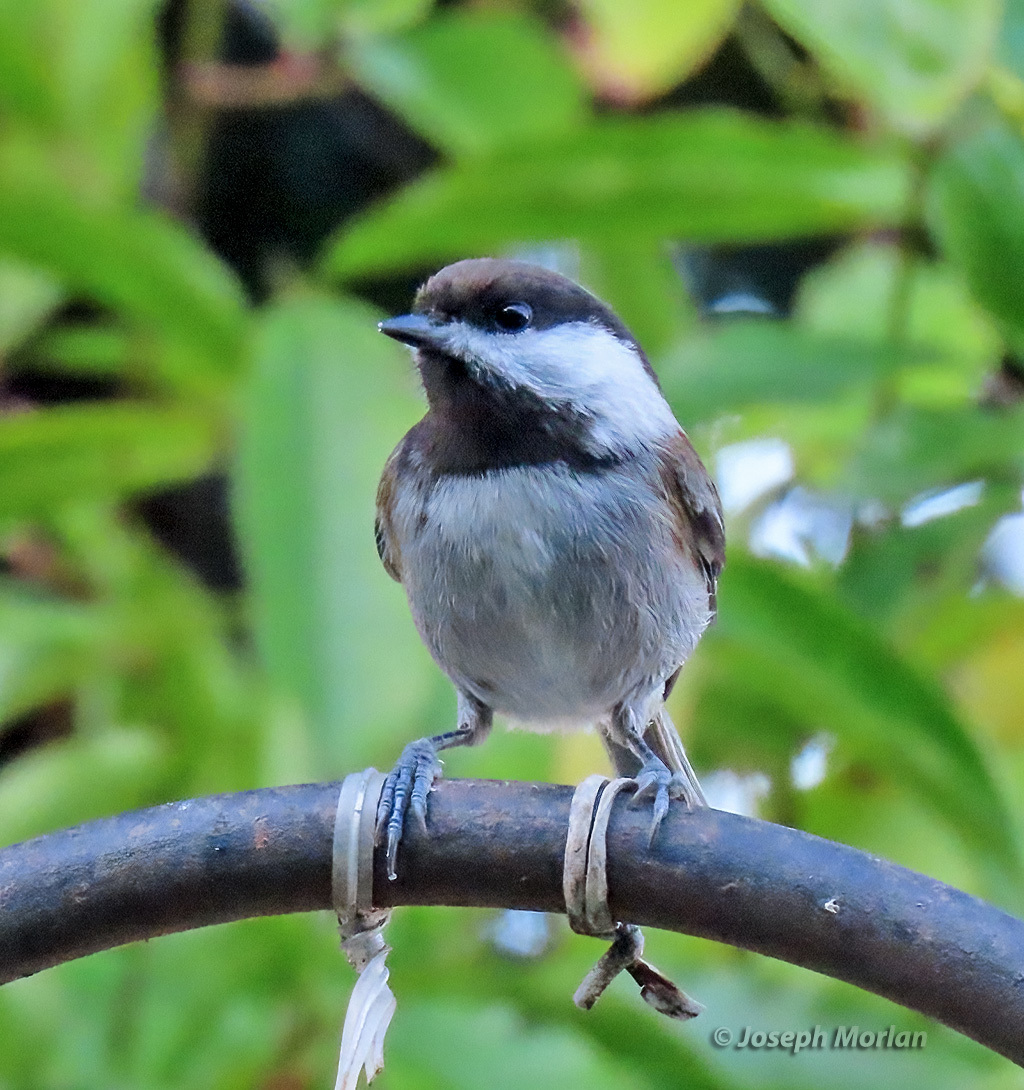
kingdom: Animalia
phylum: Chordata
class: Aves
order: Passeriformes
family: Paridae
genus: Poecile
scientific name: Poecile rufescens
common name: Chestnut-backed chickadee
